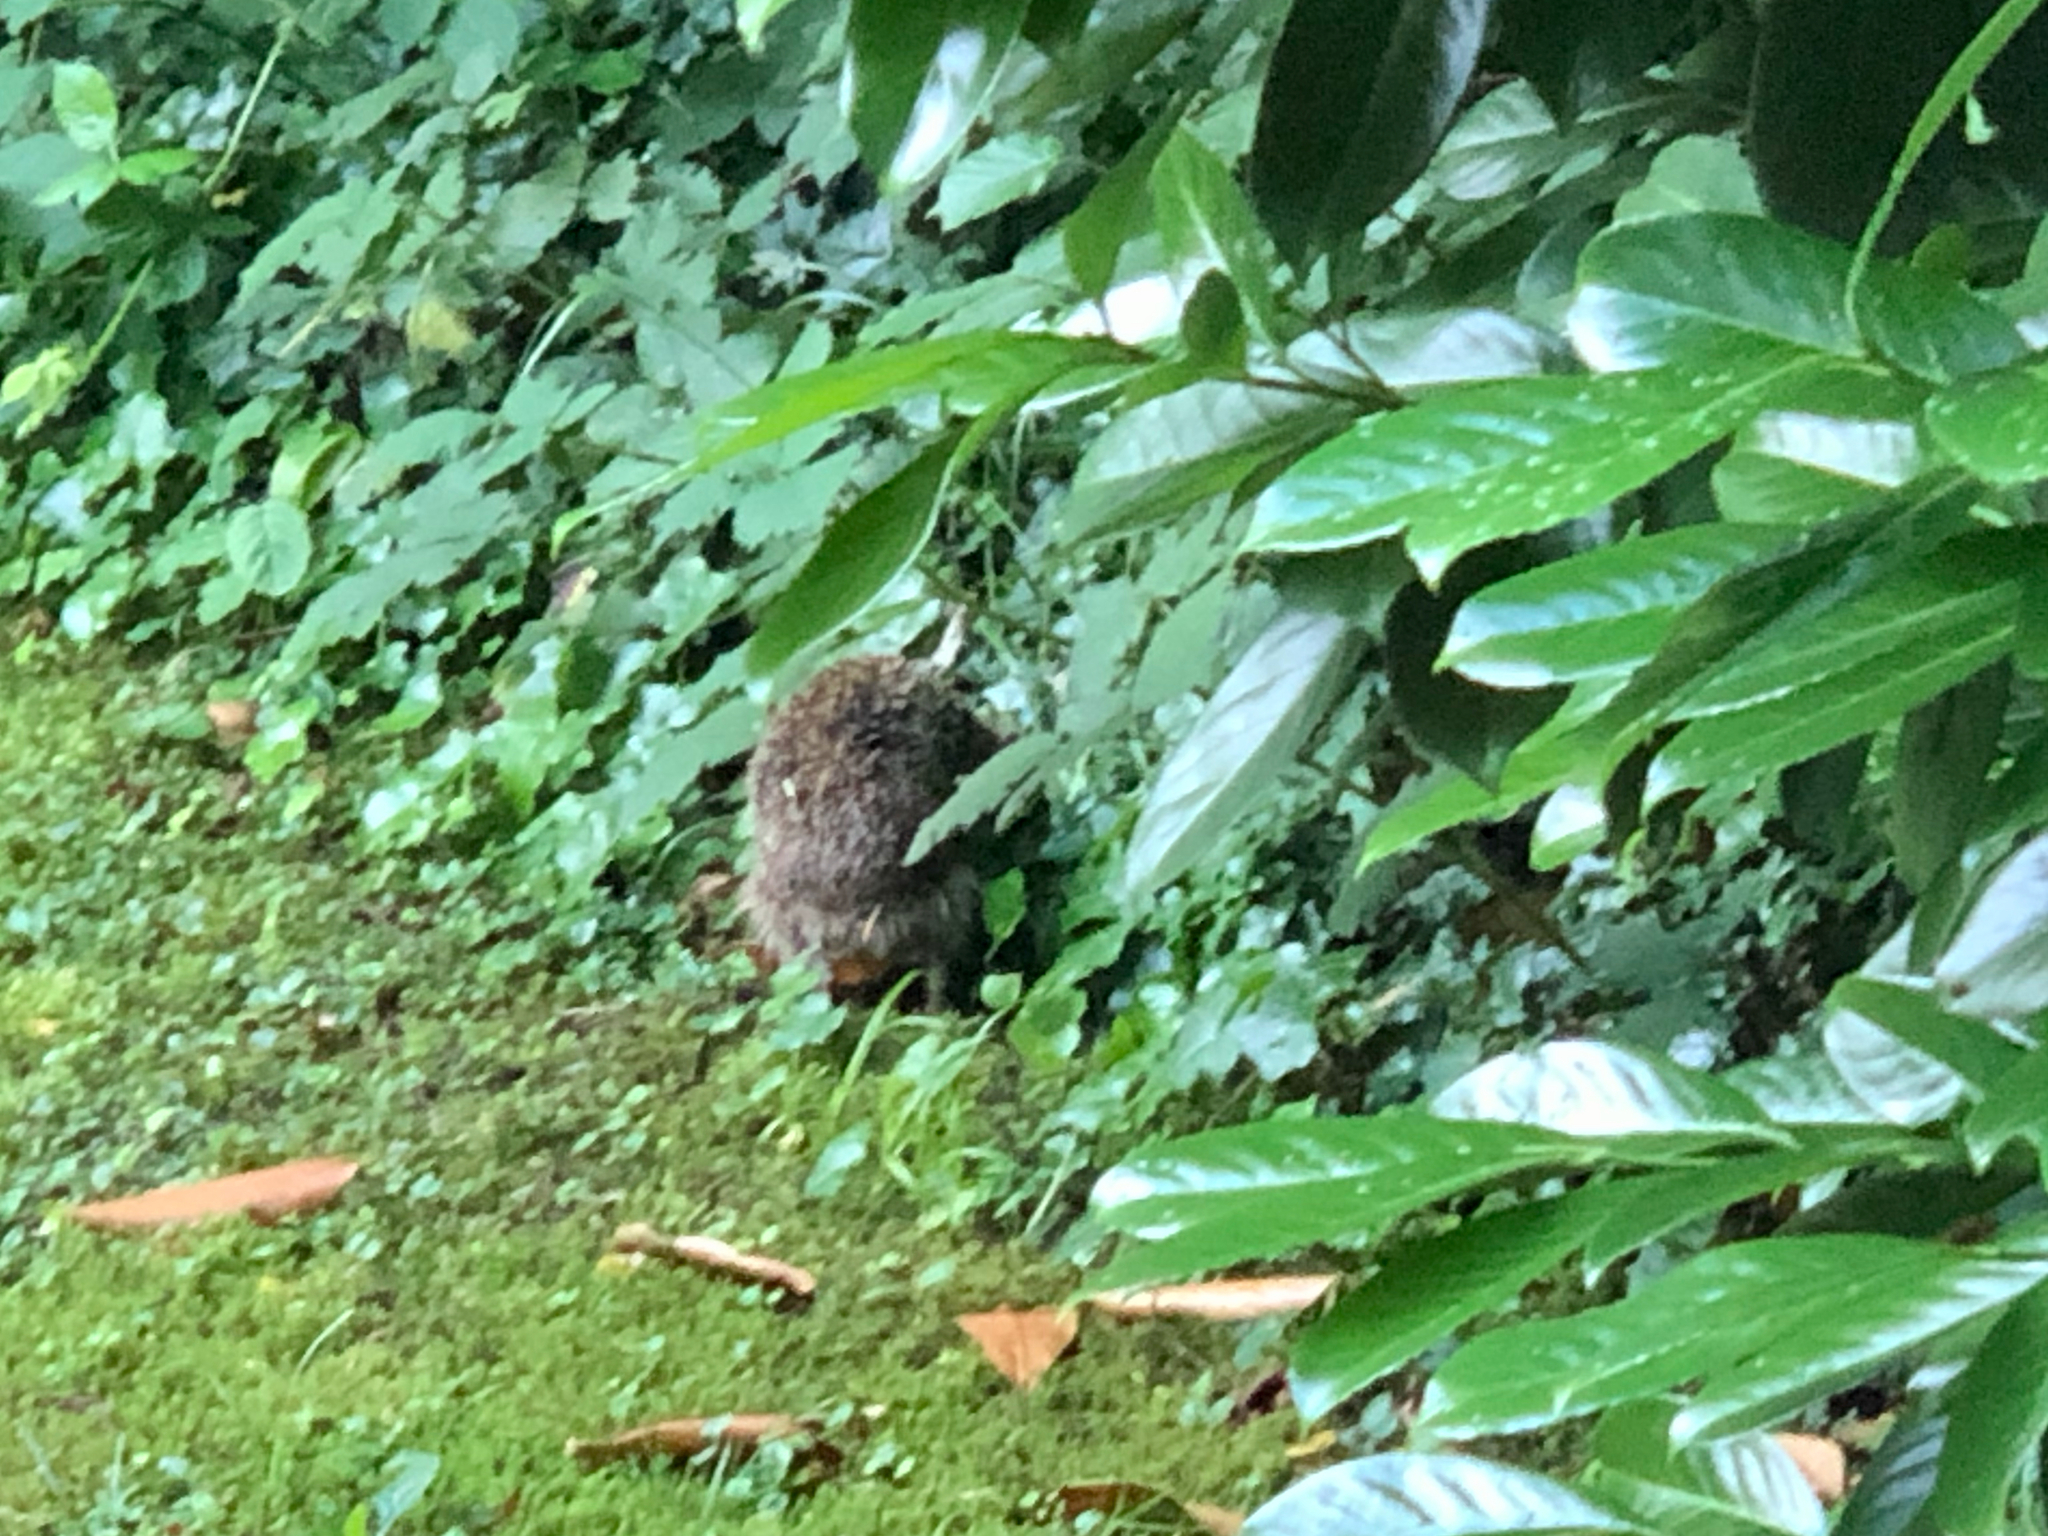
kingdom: Animalia
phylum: Chordata
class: Mammalia
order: Erinaceomorpha
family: Erinaceidae
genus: Erinaceus
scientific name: Erinaceus europaeus
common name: West european hedgehog
